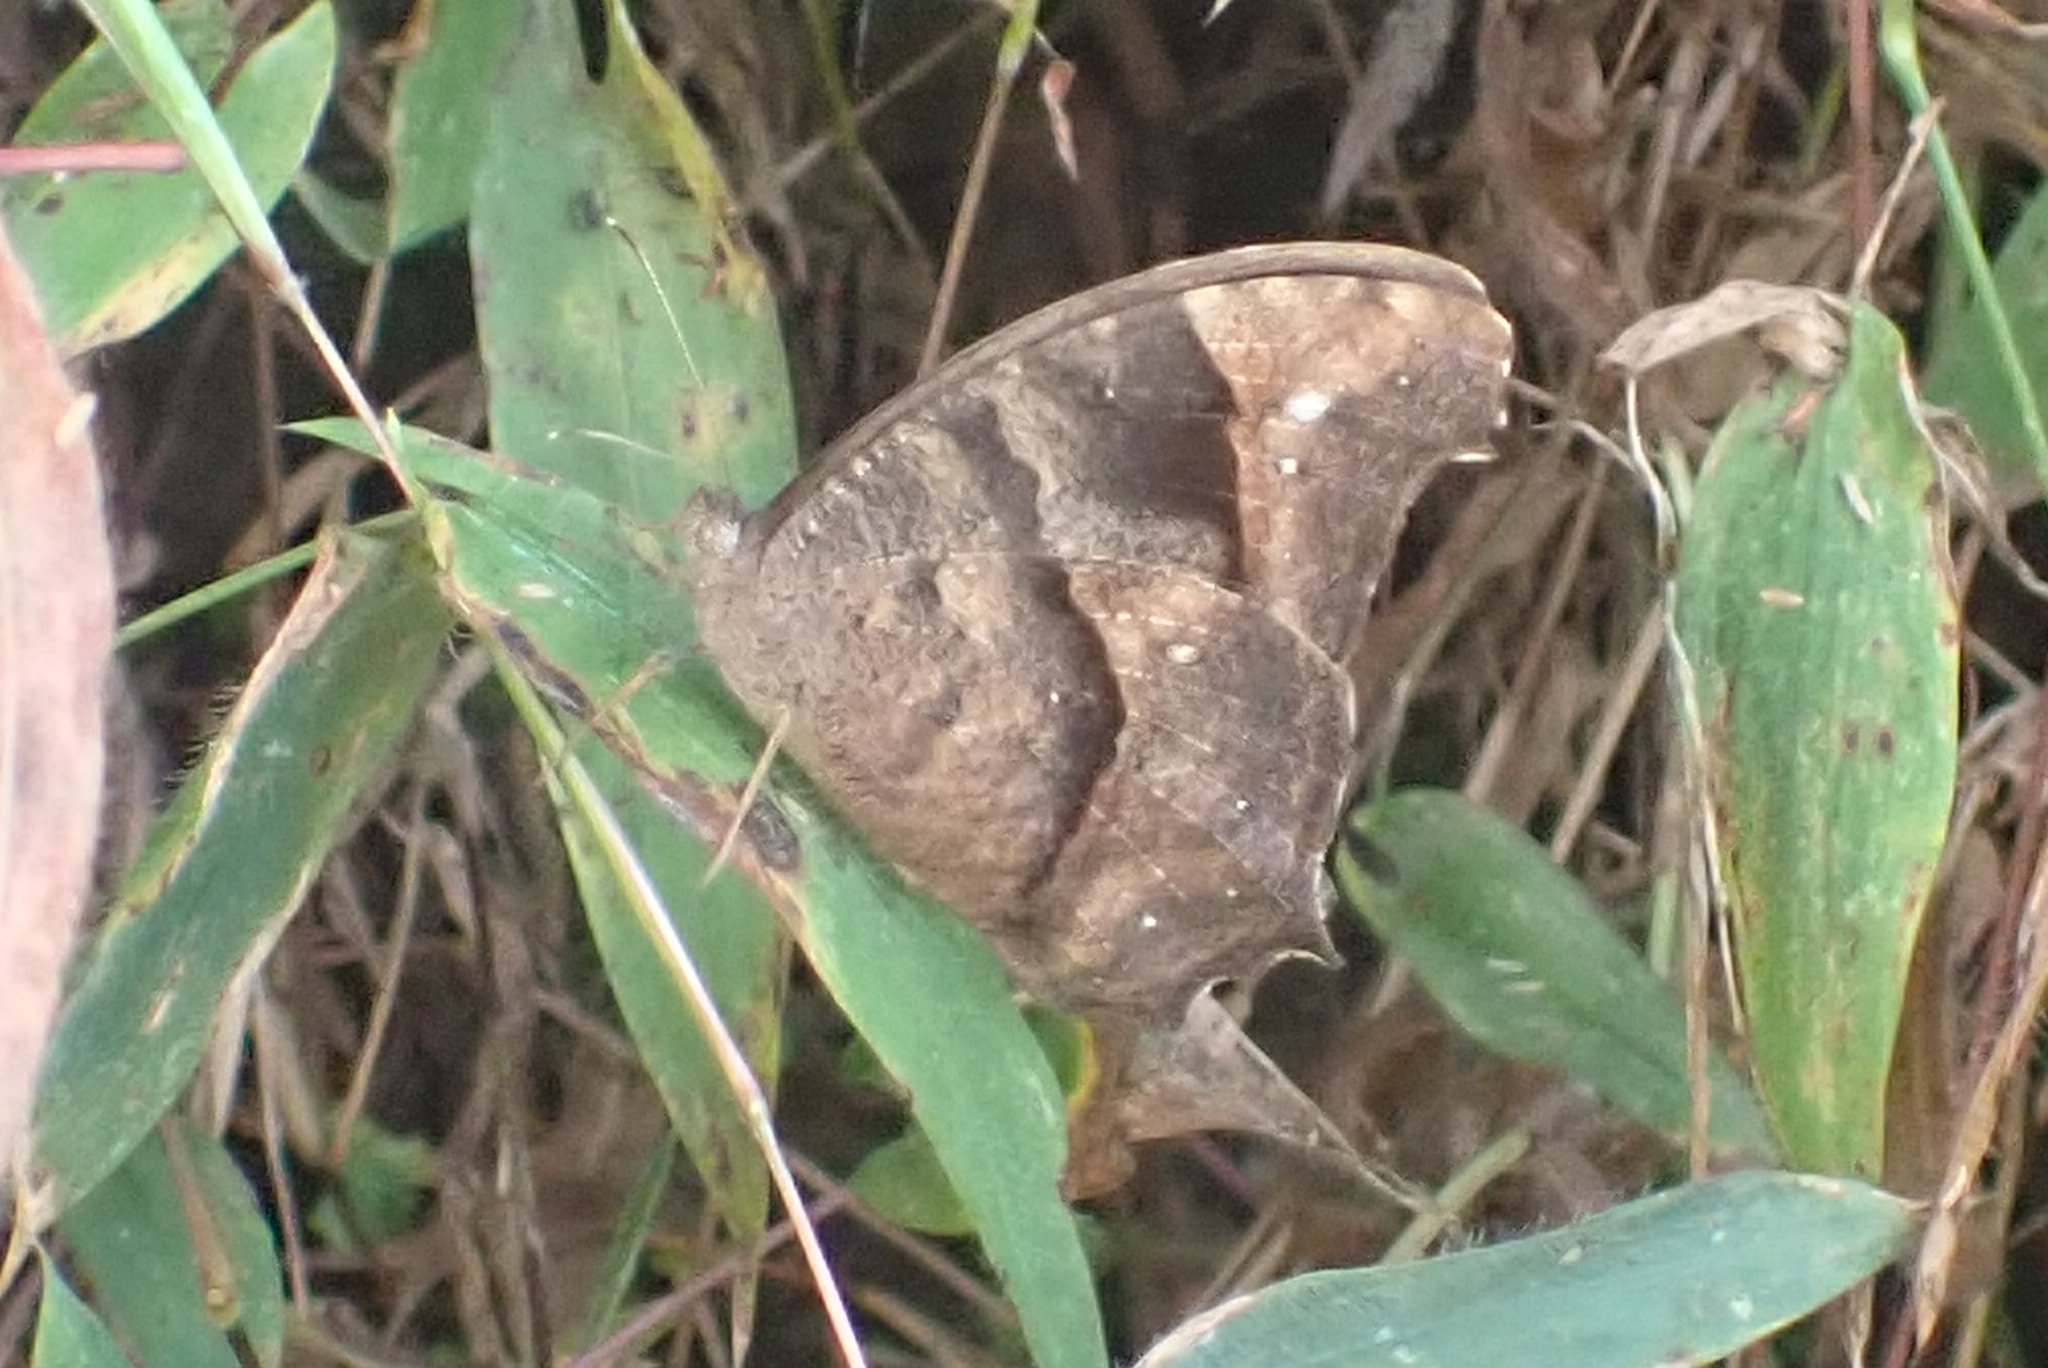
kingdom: Animalia
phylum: Arthropoda
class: Insecta
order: Lepidoptera
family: Nymphalidae
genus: Melanitis
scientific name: Melanitis leda
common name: Twilight brown
